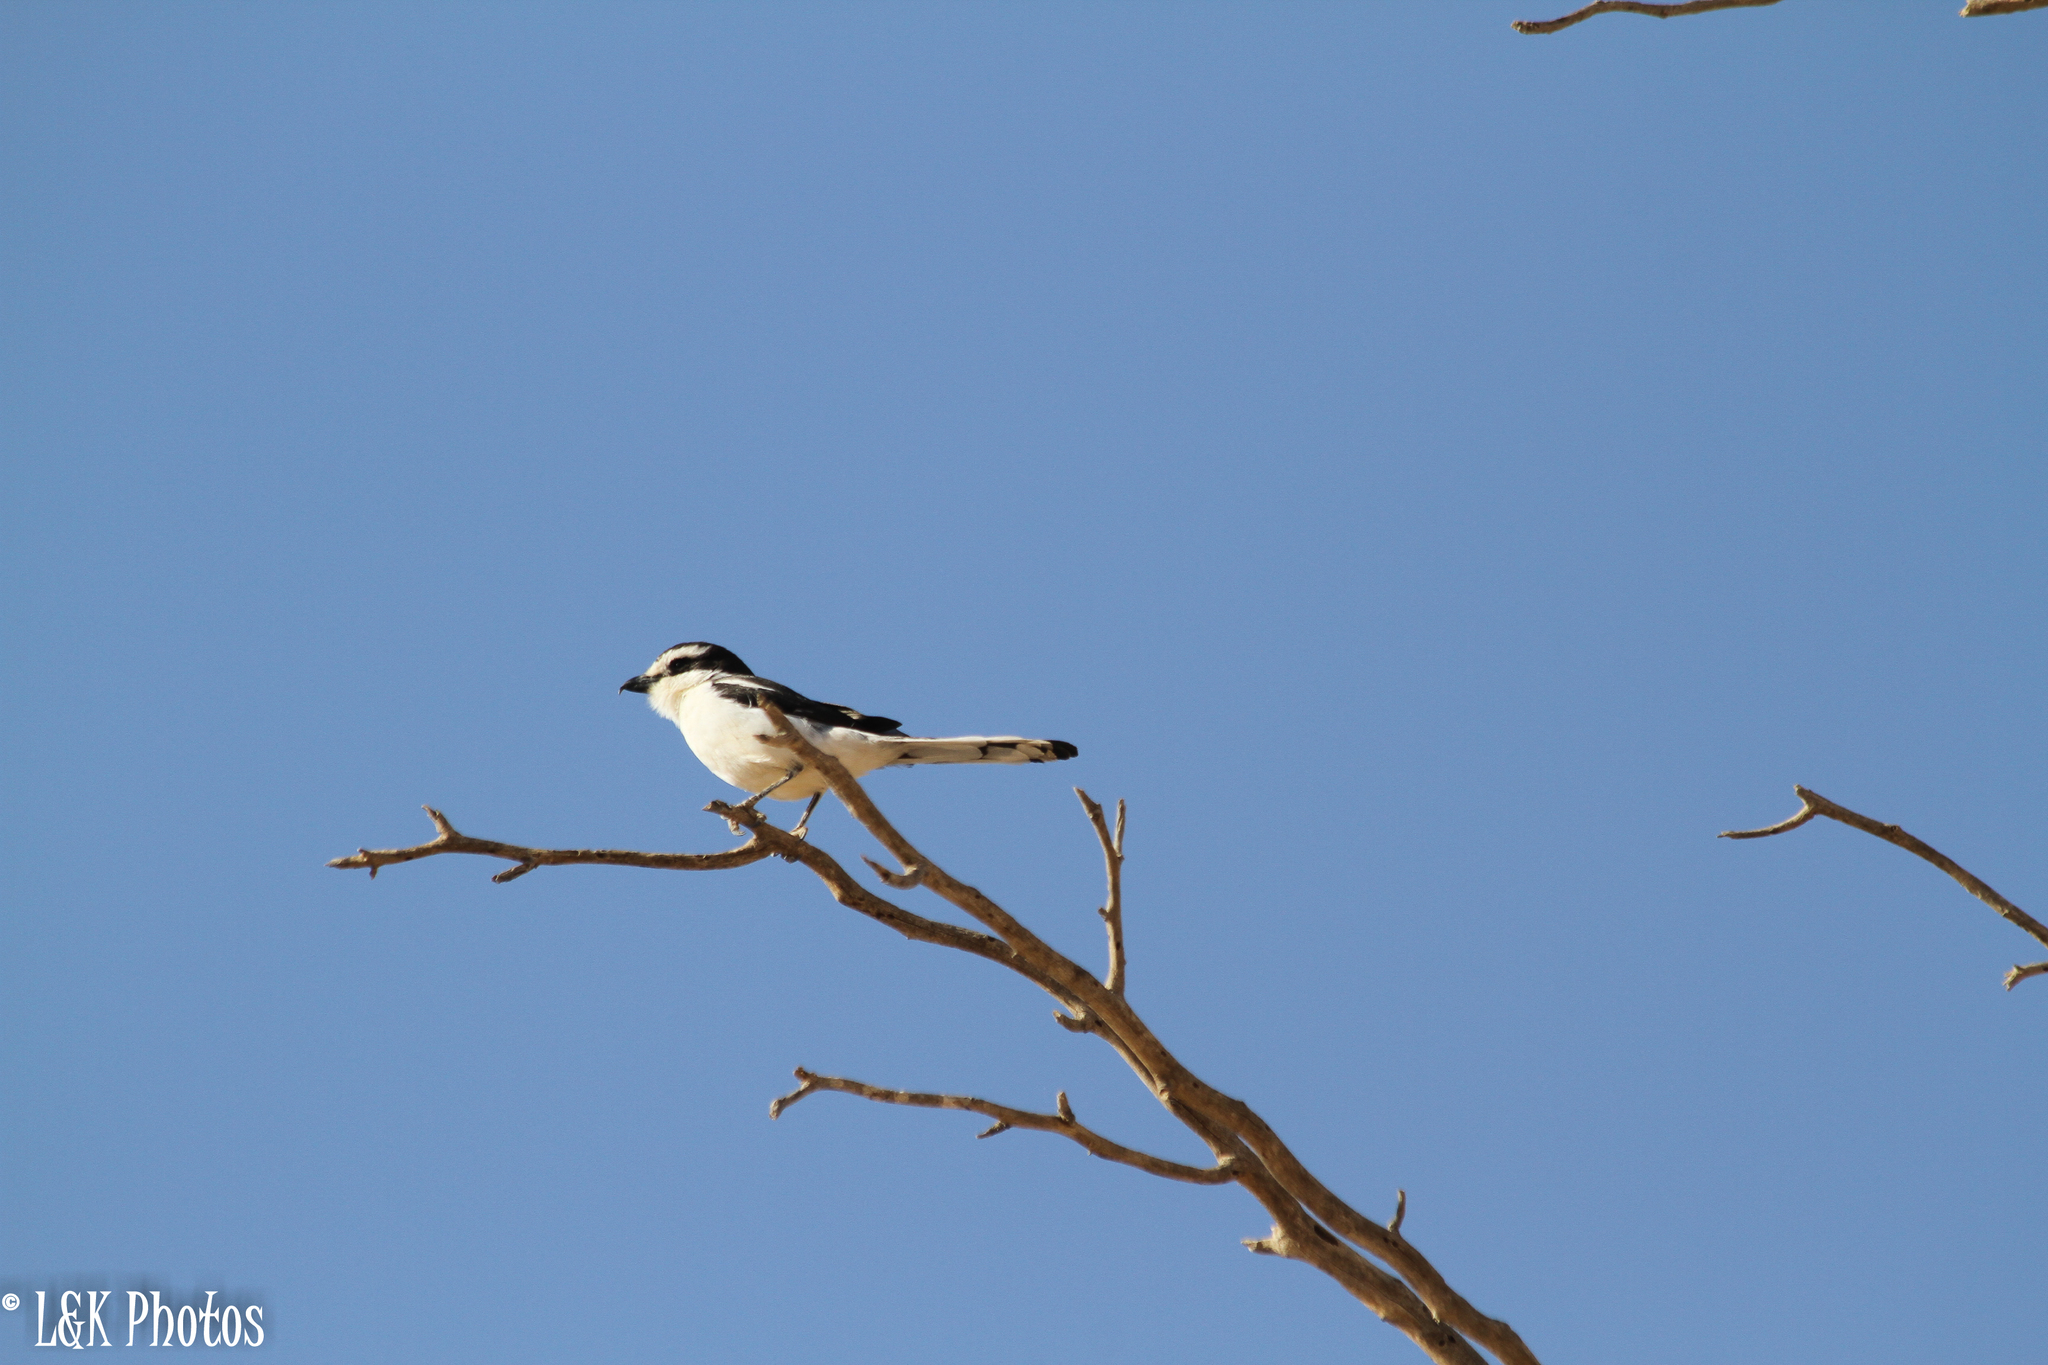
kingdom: Animalia
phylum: Chordata
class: Aves
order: Passeriformes
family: Laniidae
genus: Lanius
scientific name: Lanius collaris
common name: Southern fiscal
